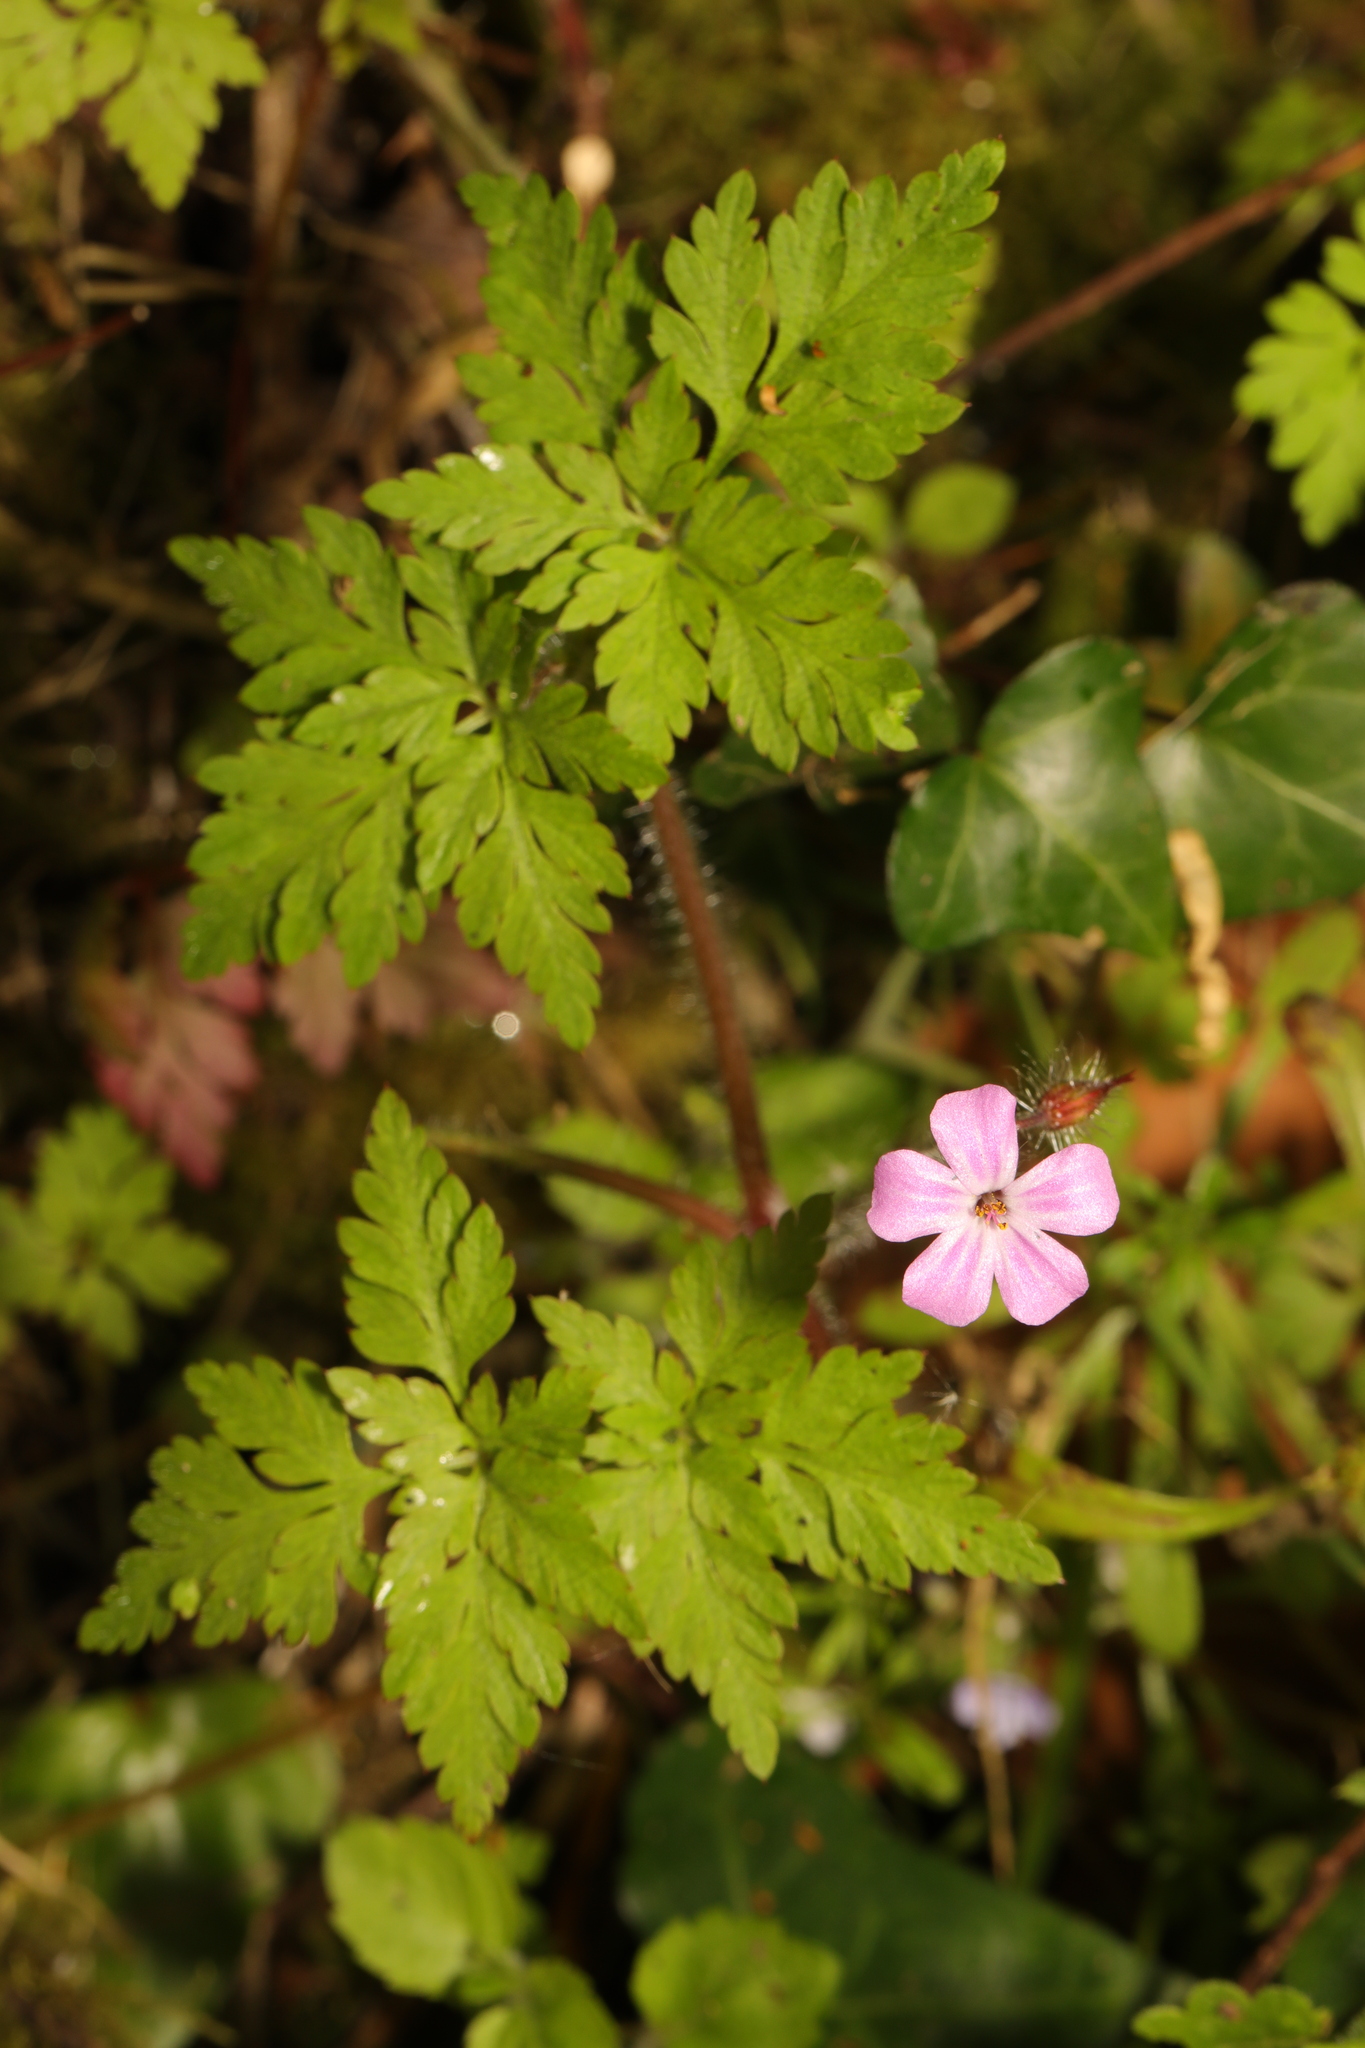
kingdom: Plantae
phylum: Tracheophyta
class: Magnoliopsida
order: Geraniales
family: Geraniaceae
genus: Geranium
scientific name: Geranium robertianum
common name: Herb-robert
